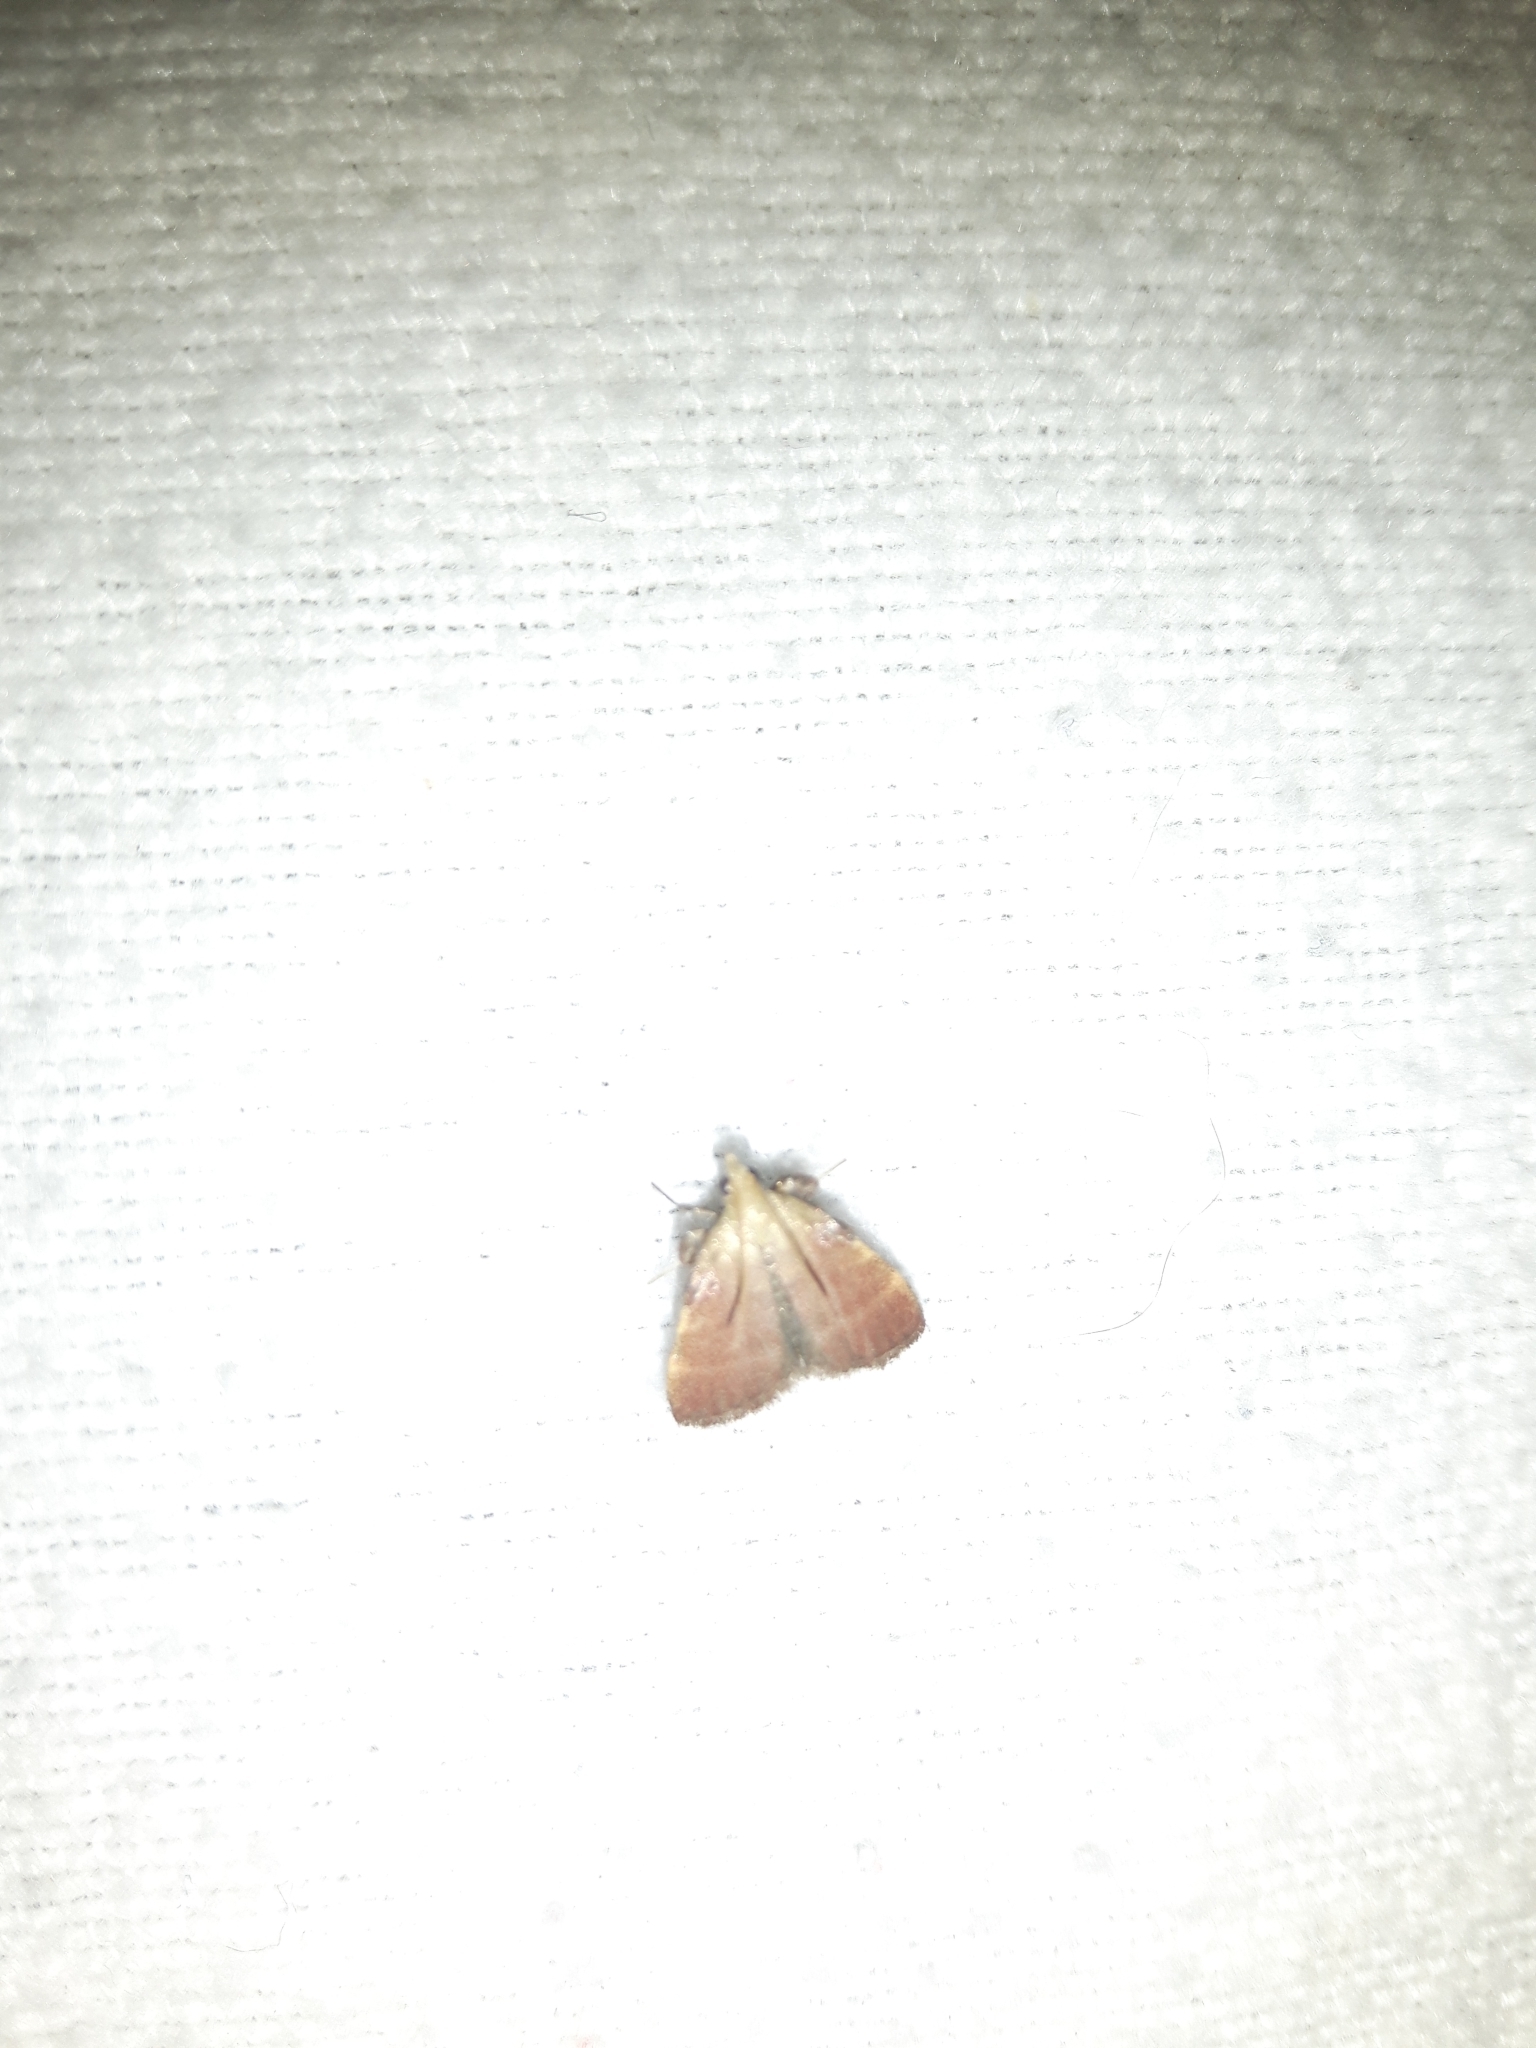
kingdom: Animalia
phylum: Arthropoda
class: Insecta
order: Lepidoptera
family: Pyralidae
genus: Condylolomia
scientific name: Condylolomia participialis
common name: Drab condylolomia moth
